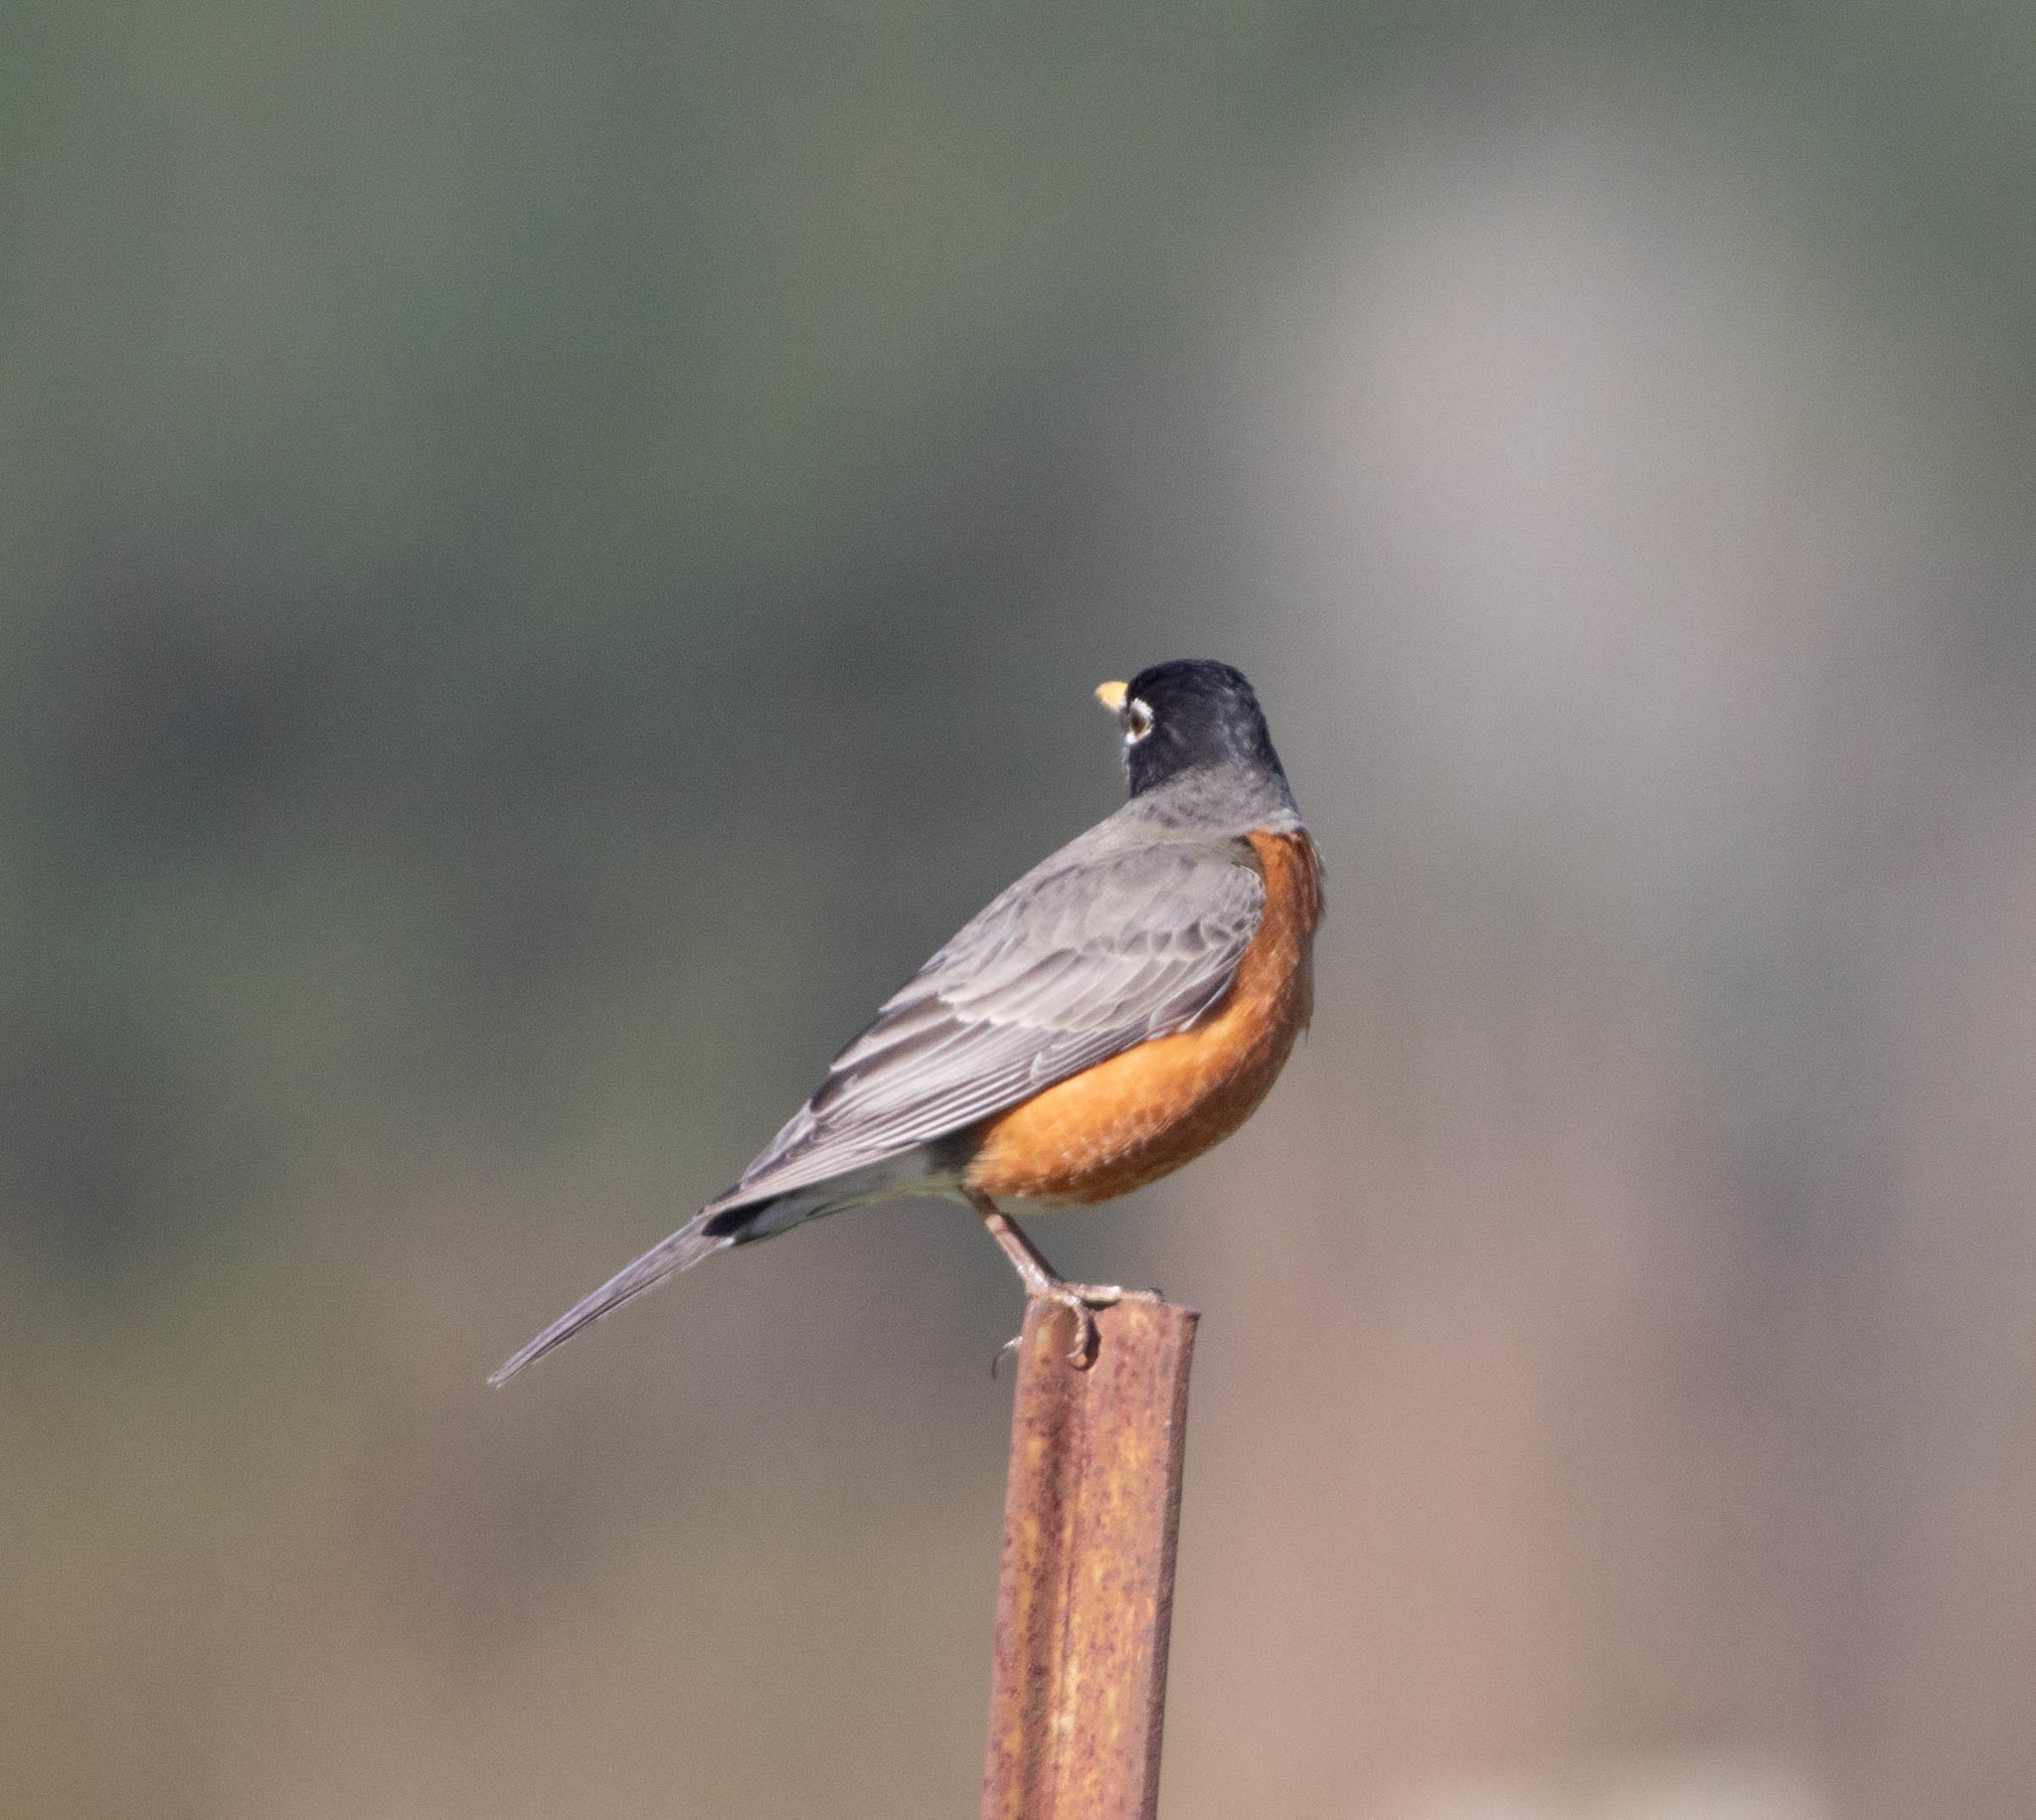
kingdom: Animalia
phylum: Chordata
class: Aves
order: Passeriformes
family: Turdidae
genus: Turdus
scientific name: Turdus migratorius
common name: American robin
